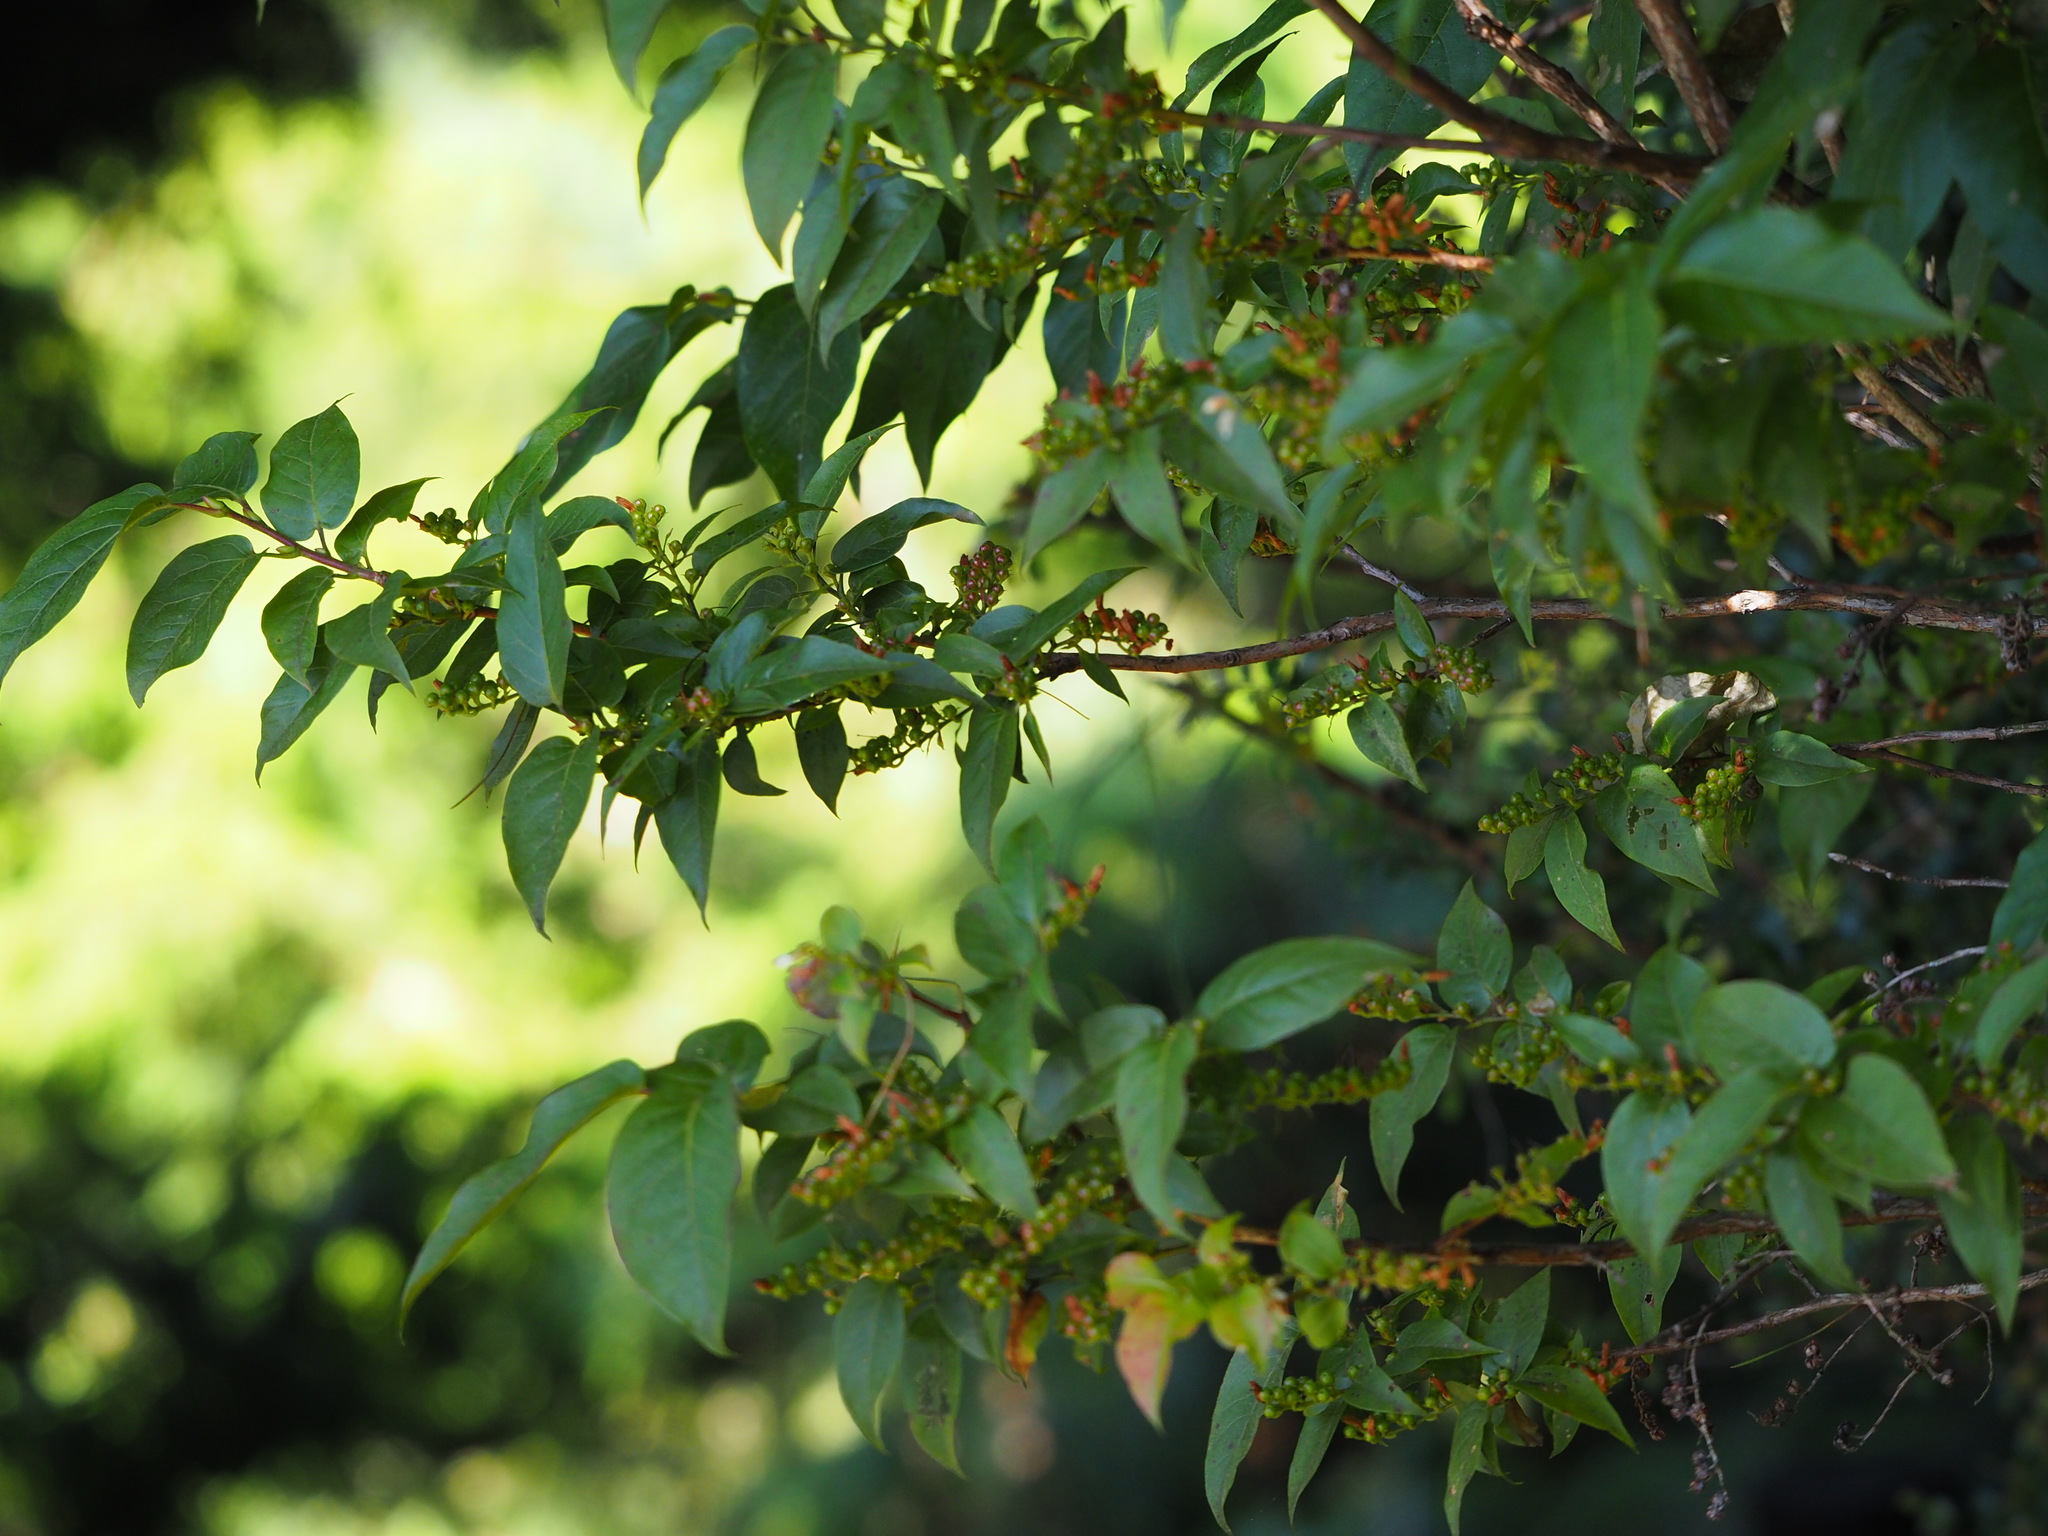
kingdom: Plantae
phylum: Tracheophyta
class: Magnoliopsida
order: Ericales
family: Ericaceae
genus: Lyonia
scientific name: Lyonia ovalifolia
